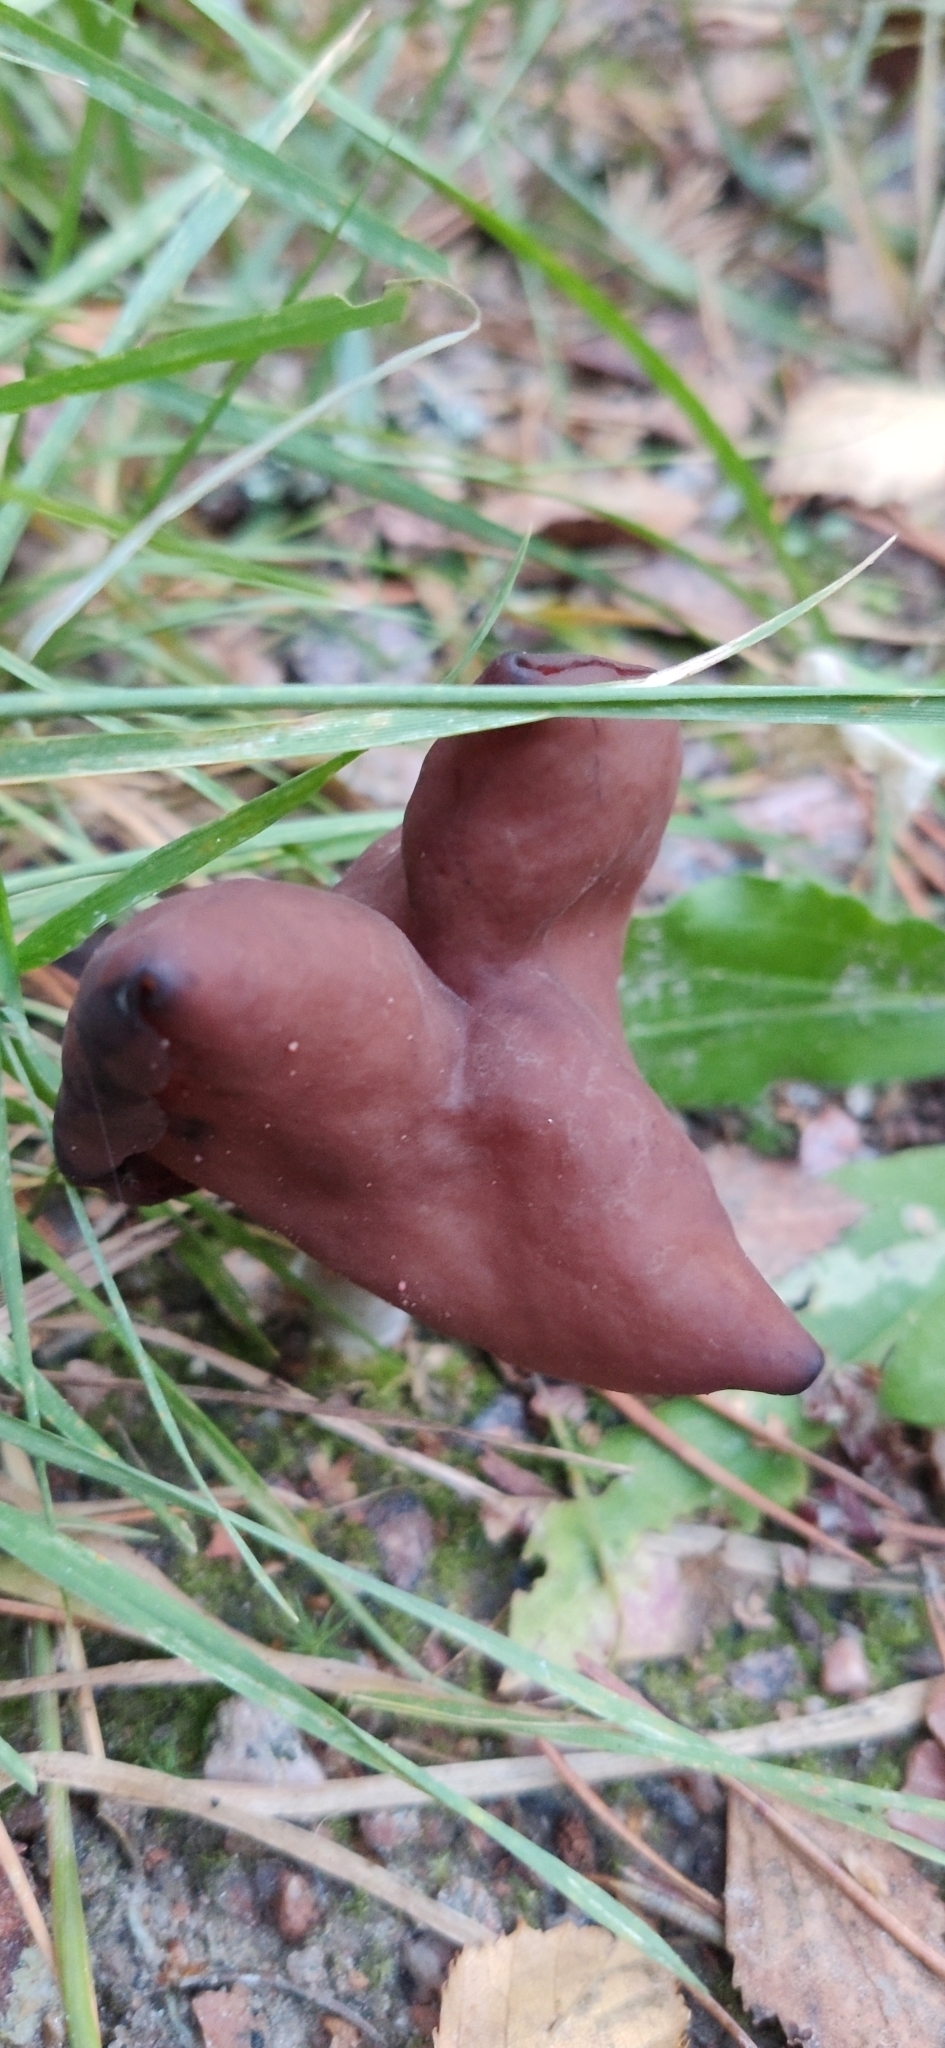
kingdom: Fungi
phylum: Ascomycota
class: Pezizomycetes
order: Pezizales
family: Discinaceae
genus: Gyromitra
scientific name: Gyromitra infula
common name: Pouched false morel
